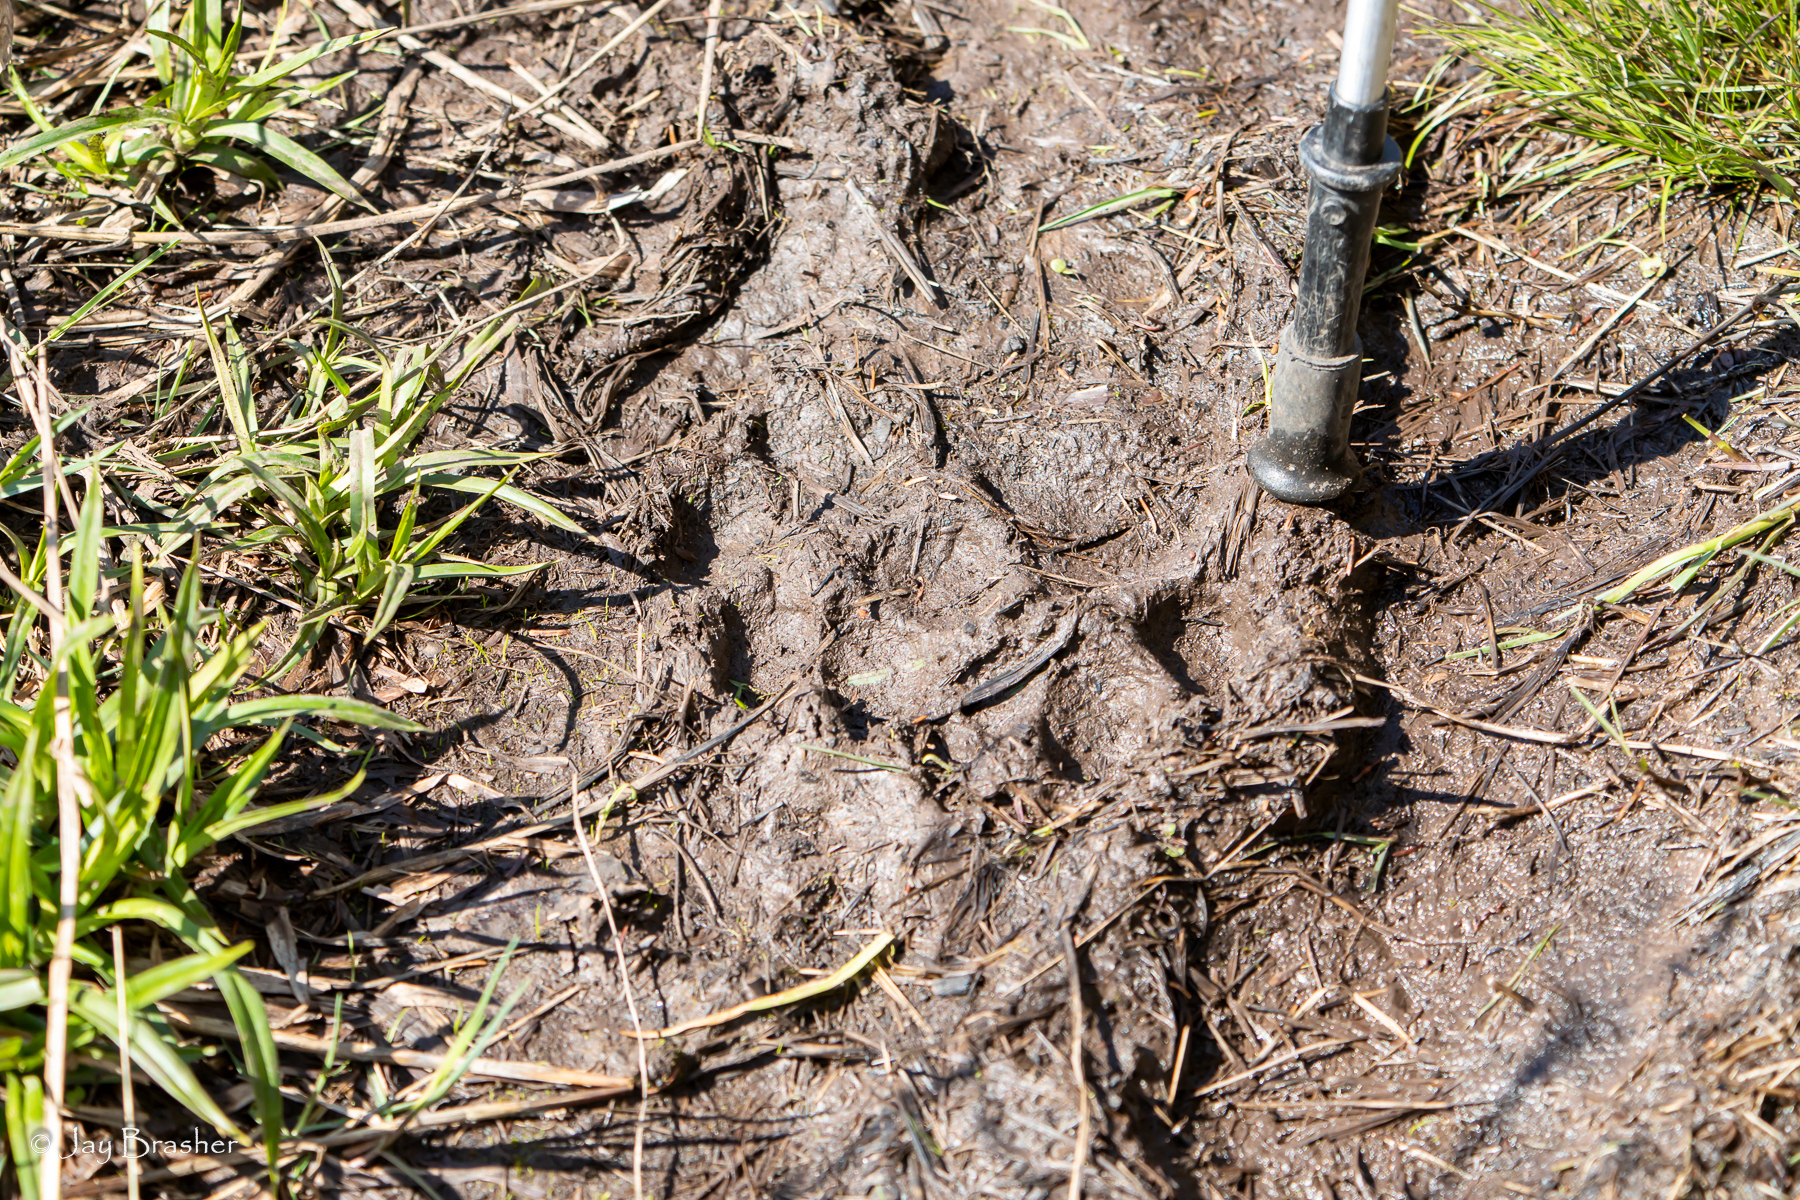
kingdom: Animalia
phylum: Chordata
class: Mammalia
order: Carnivora
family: Canidae
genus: Canis
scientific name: Canis lupus
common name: Gray wolf
